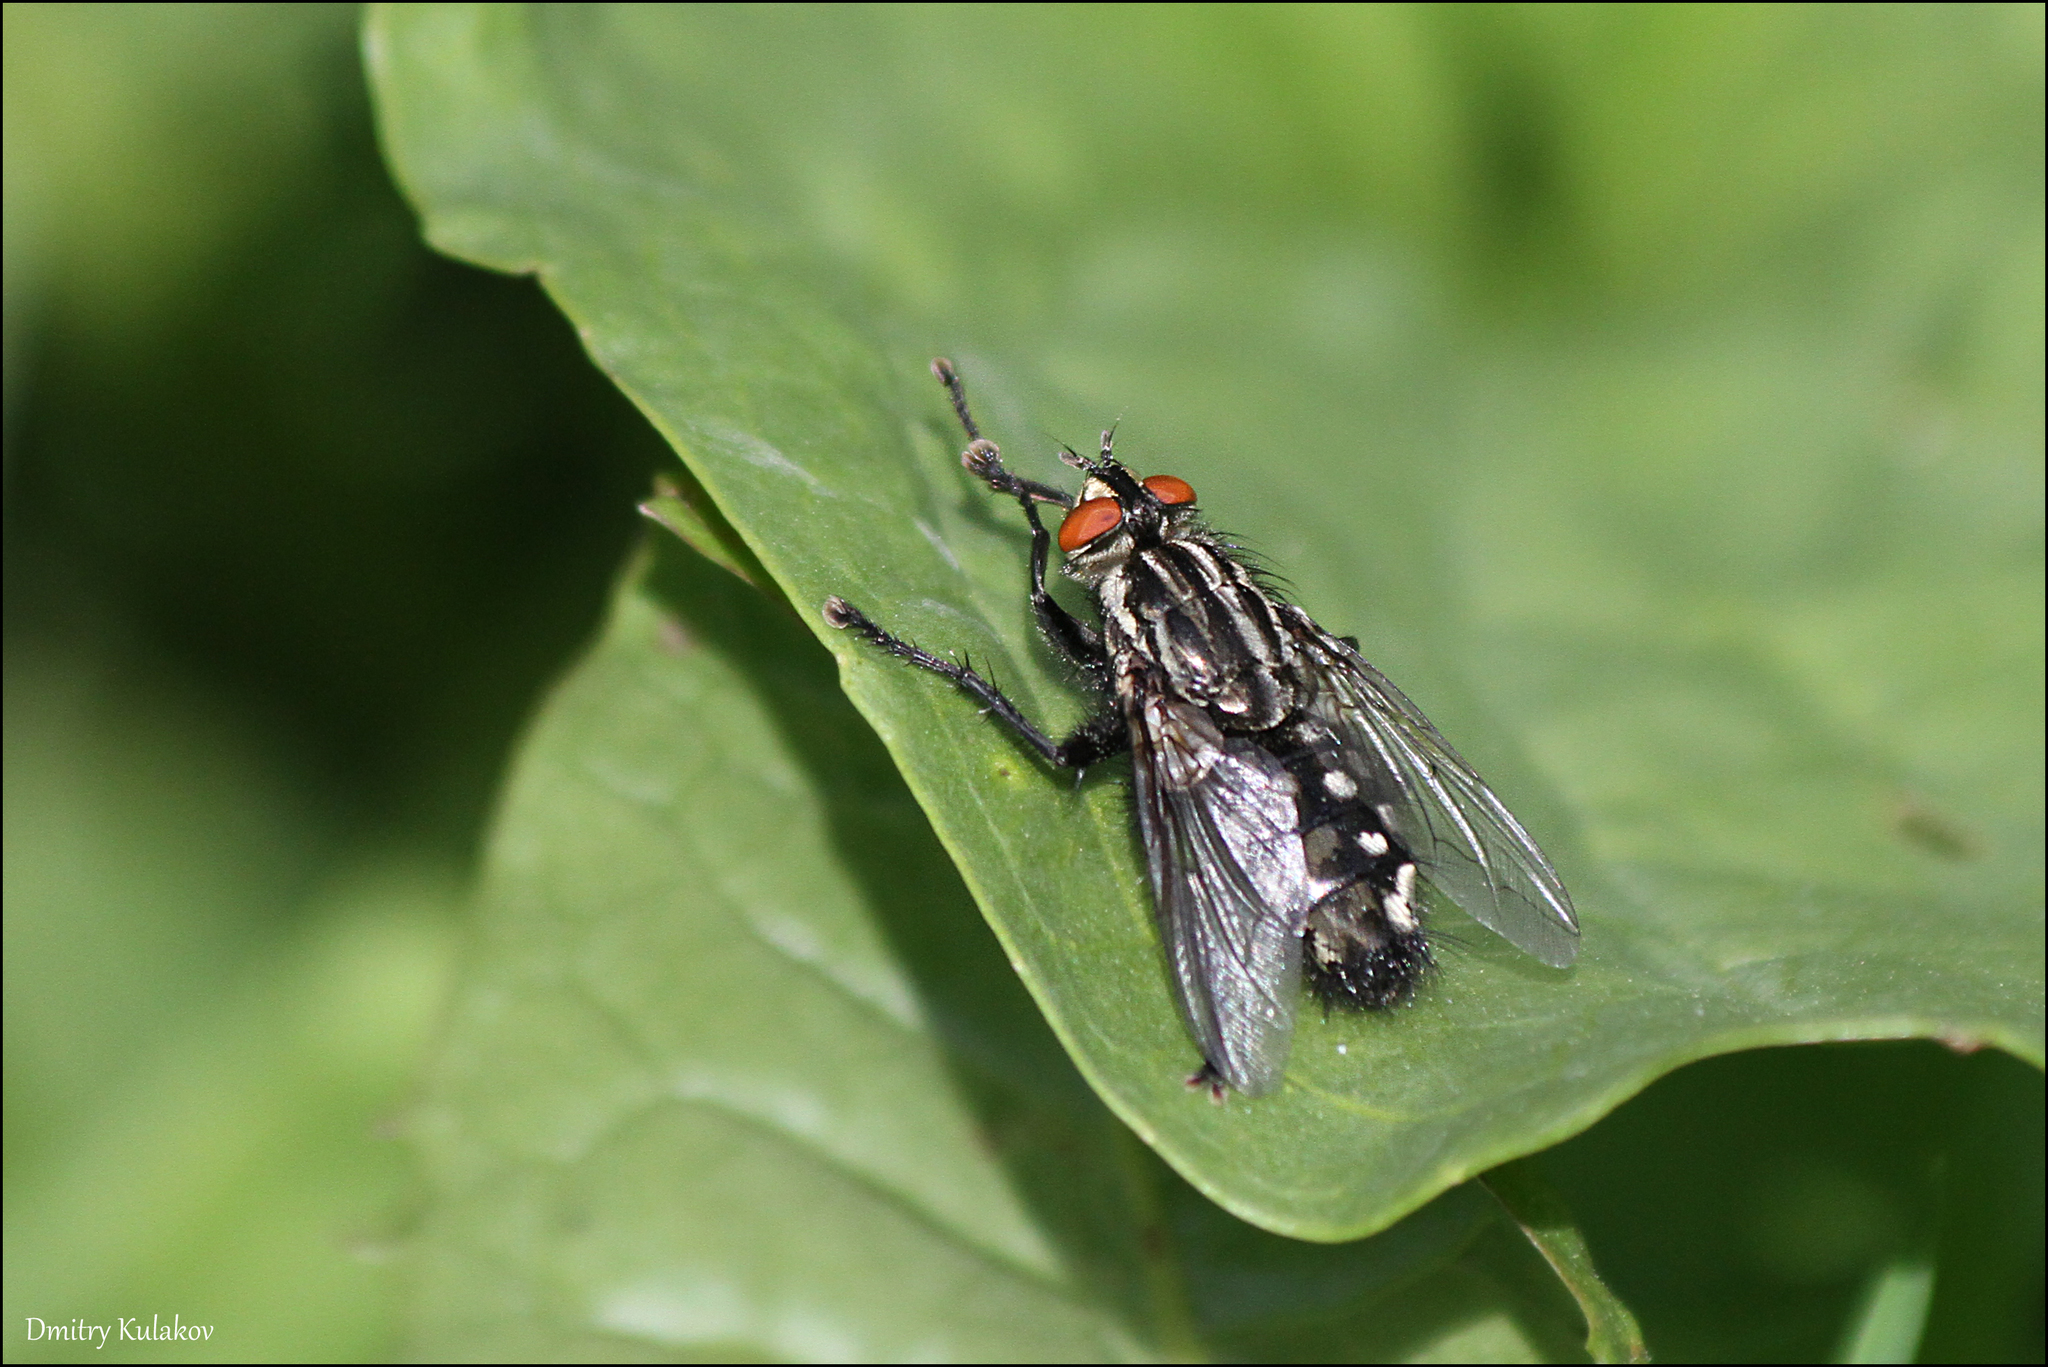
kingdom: Animalia
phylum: Arthropoda
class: Insecta
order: Diptera
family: Sarcophagidae
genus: Sarcophaga
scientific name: Sarcophaga
